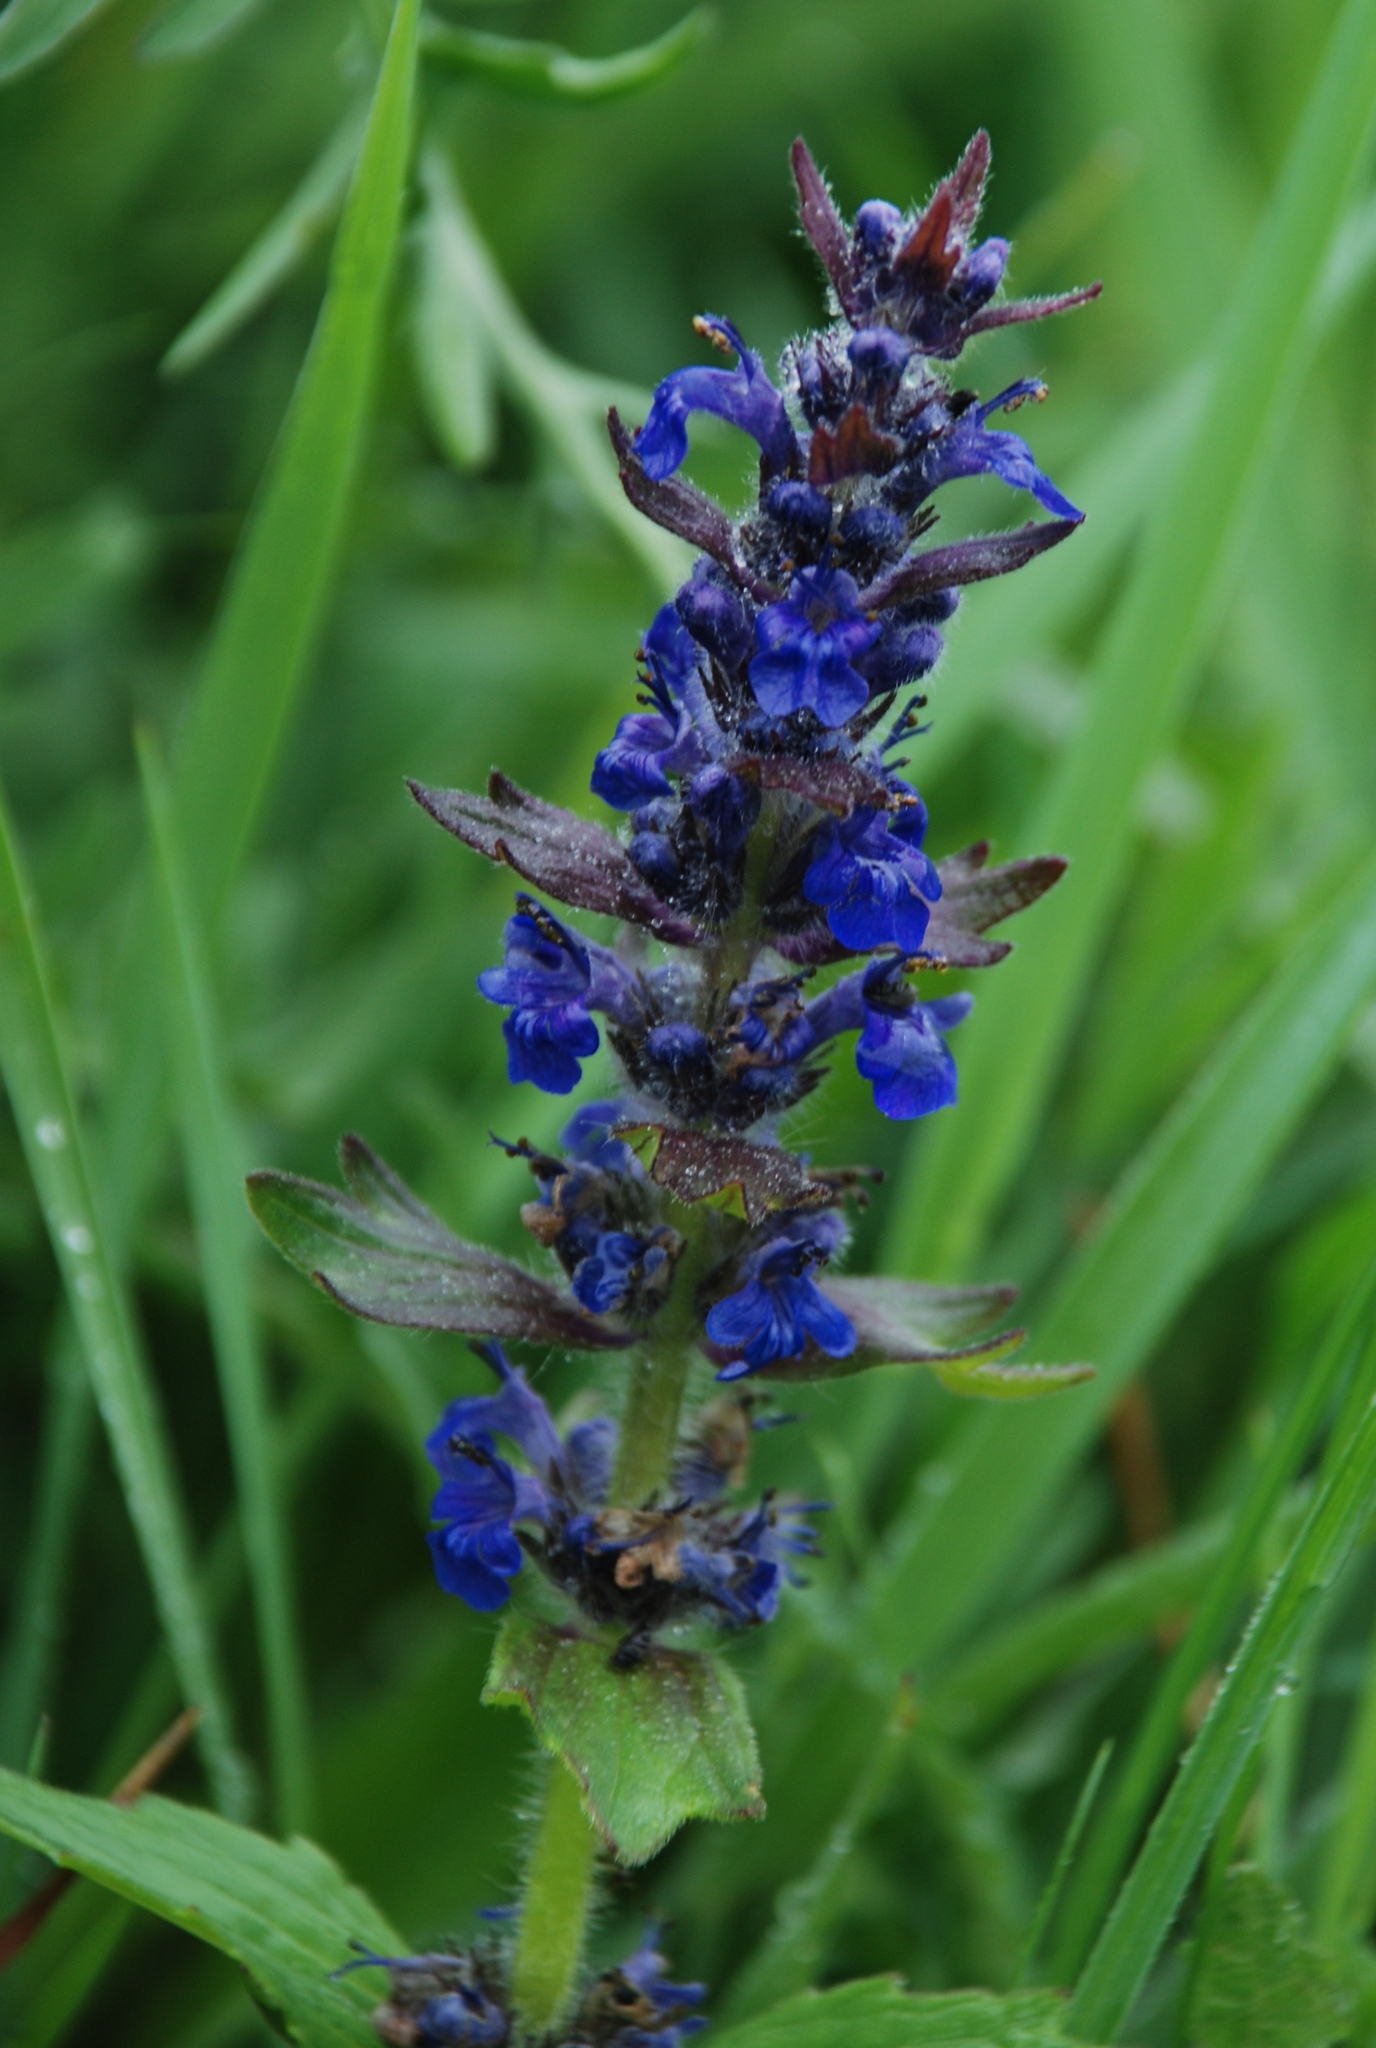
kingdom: Plantae
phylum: Tracheophyta
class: Magnoliopsida
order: Lamiales
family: Lamiaceae
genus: Ajuga
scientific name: Ajuga genevensis
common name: Blue bugle
